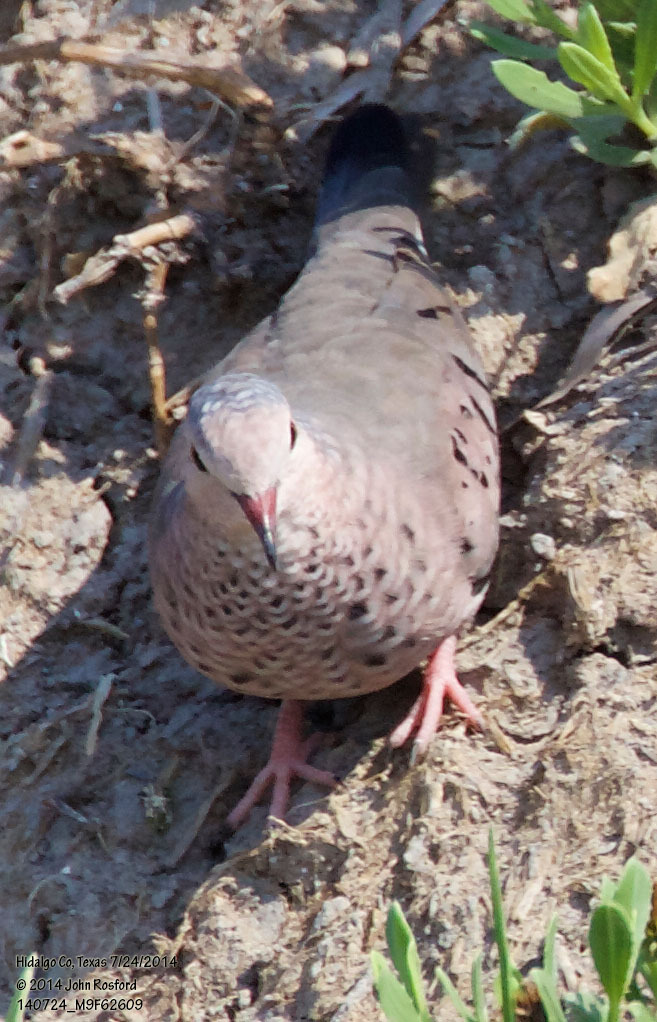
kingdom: Animalia
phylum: Chordata
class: Aves
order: Columbiformes
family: Columbidae
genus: Columbina
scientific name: Columbina passerina
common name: Common ground-dove
